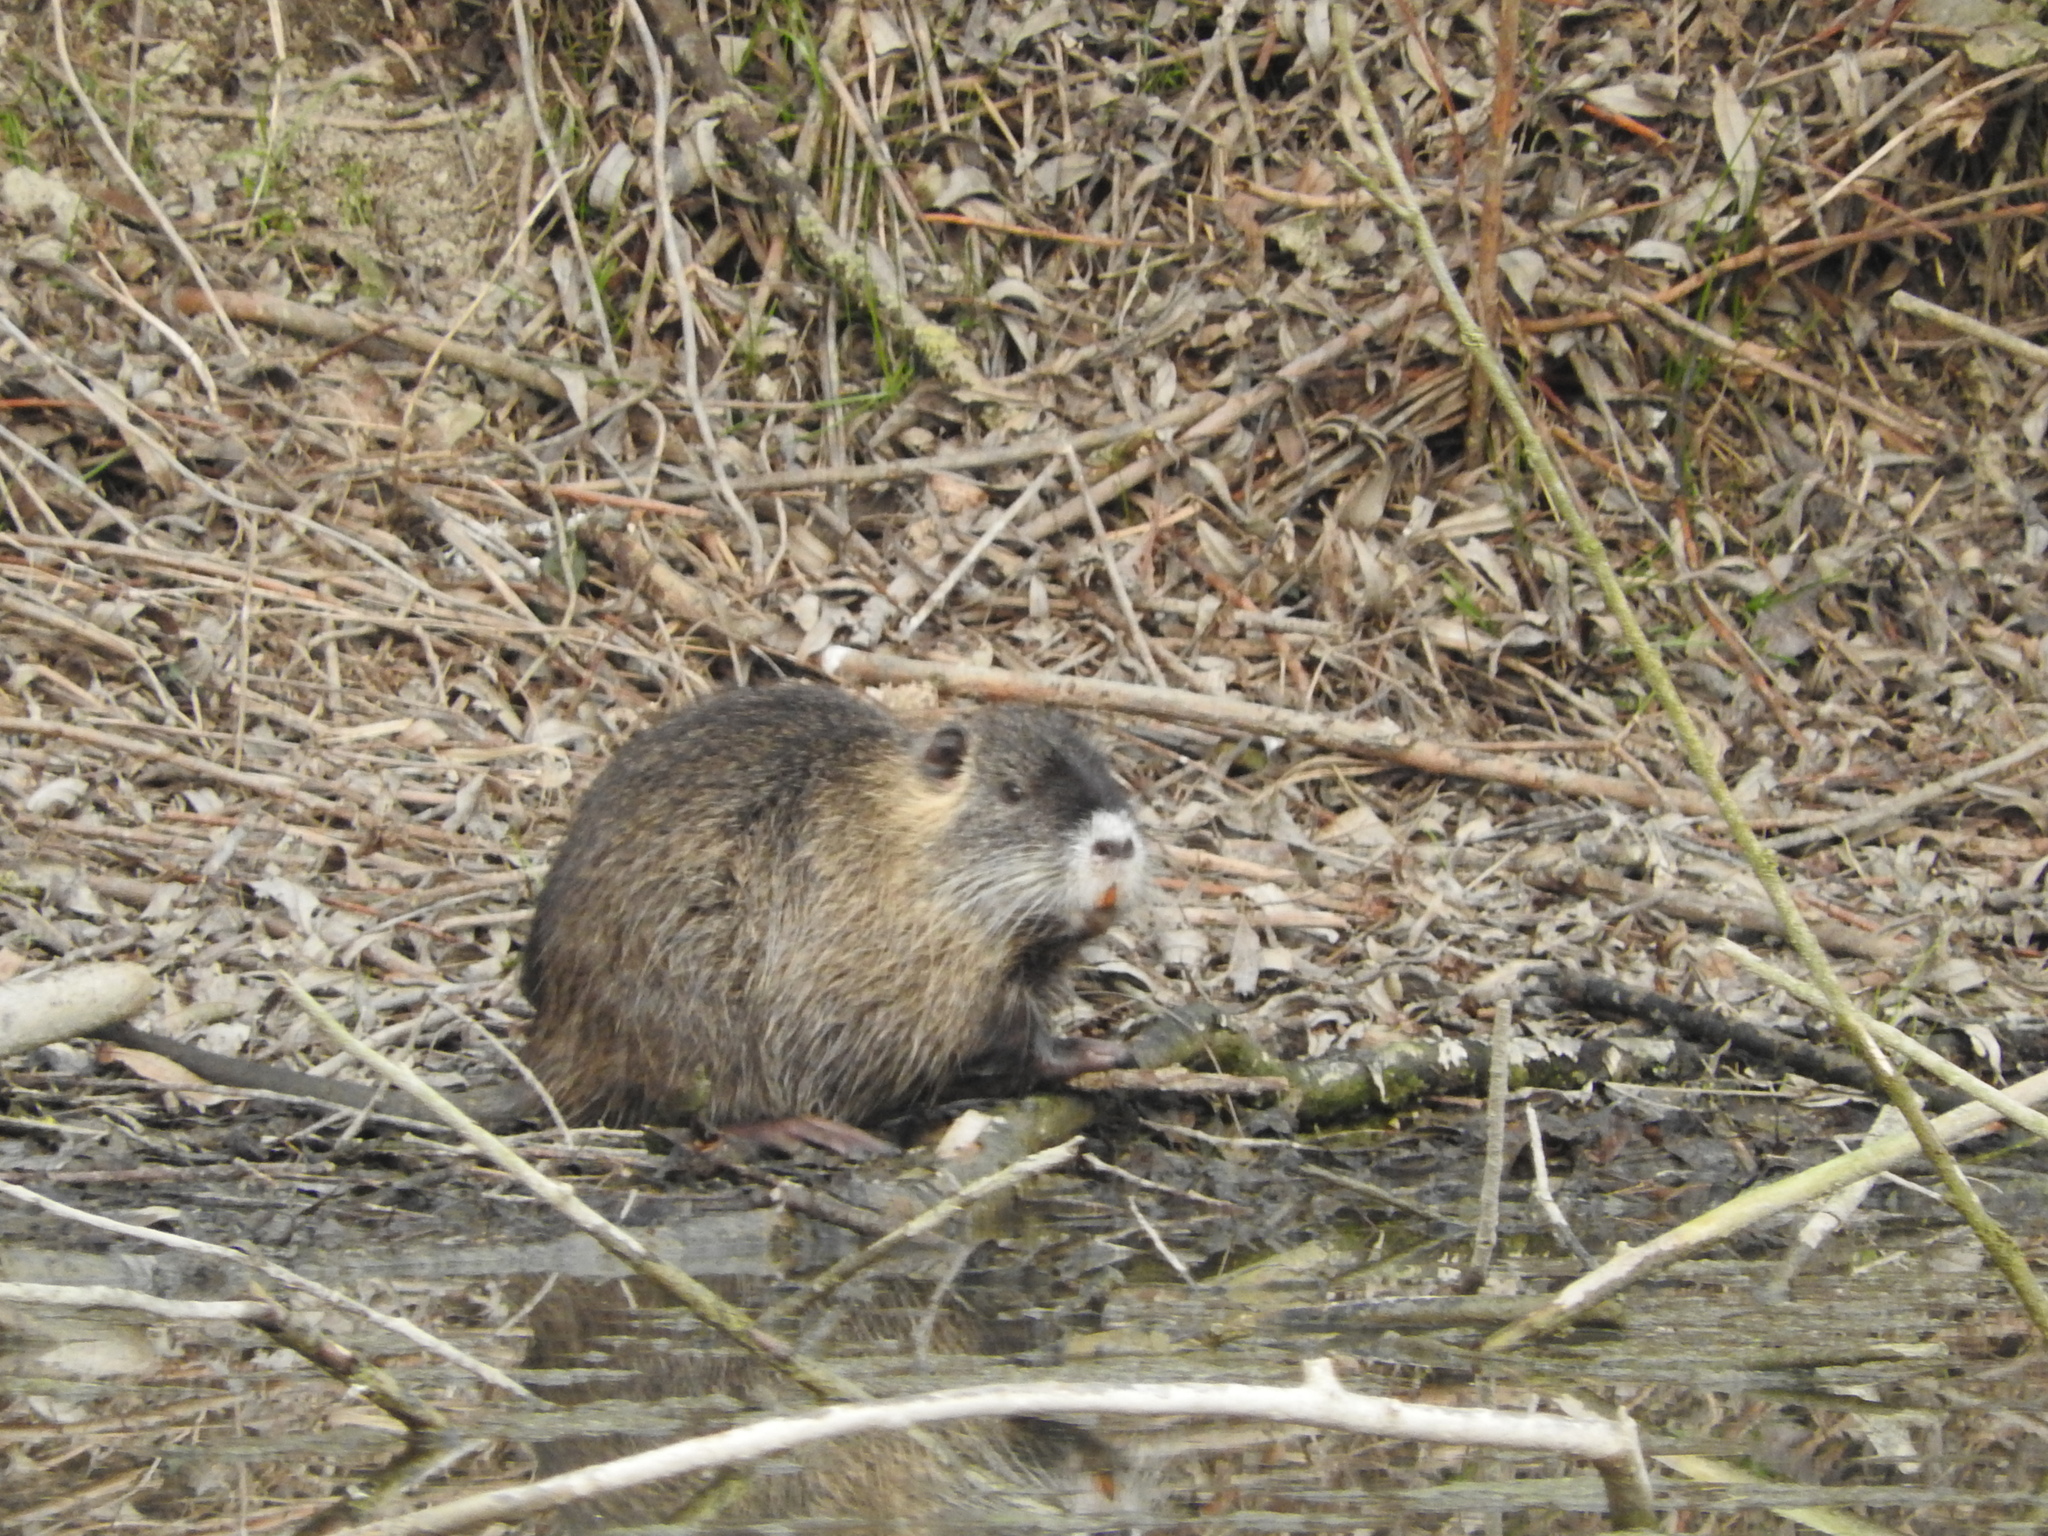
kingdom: Animalia
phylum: Chordata
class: Mammalia
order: Rodentia
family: Myocastoridae
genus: Myocastor
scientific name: Myocastor coypus
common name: Coypu
